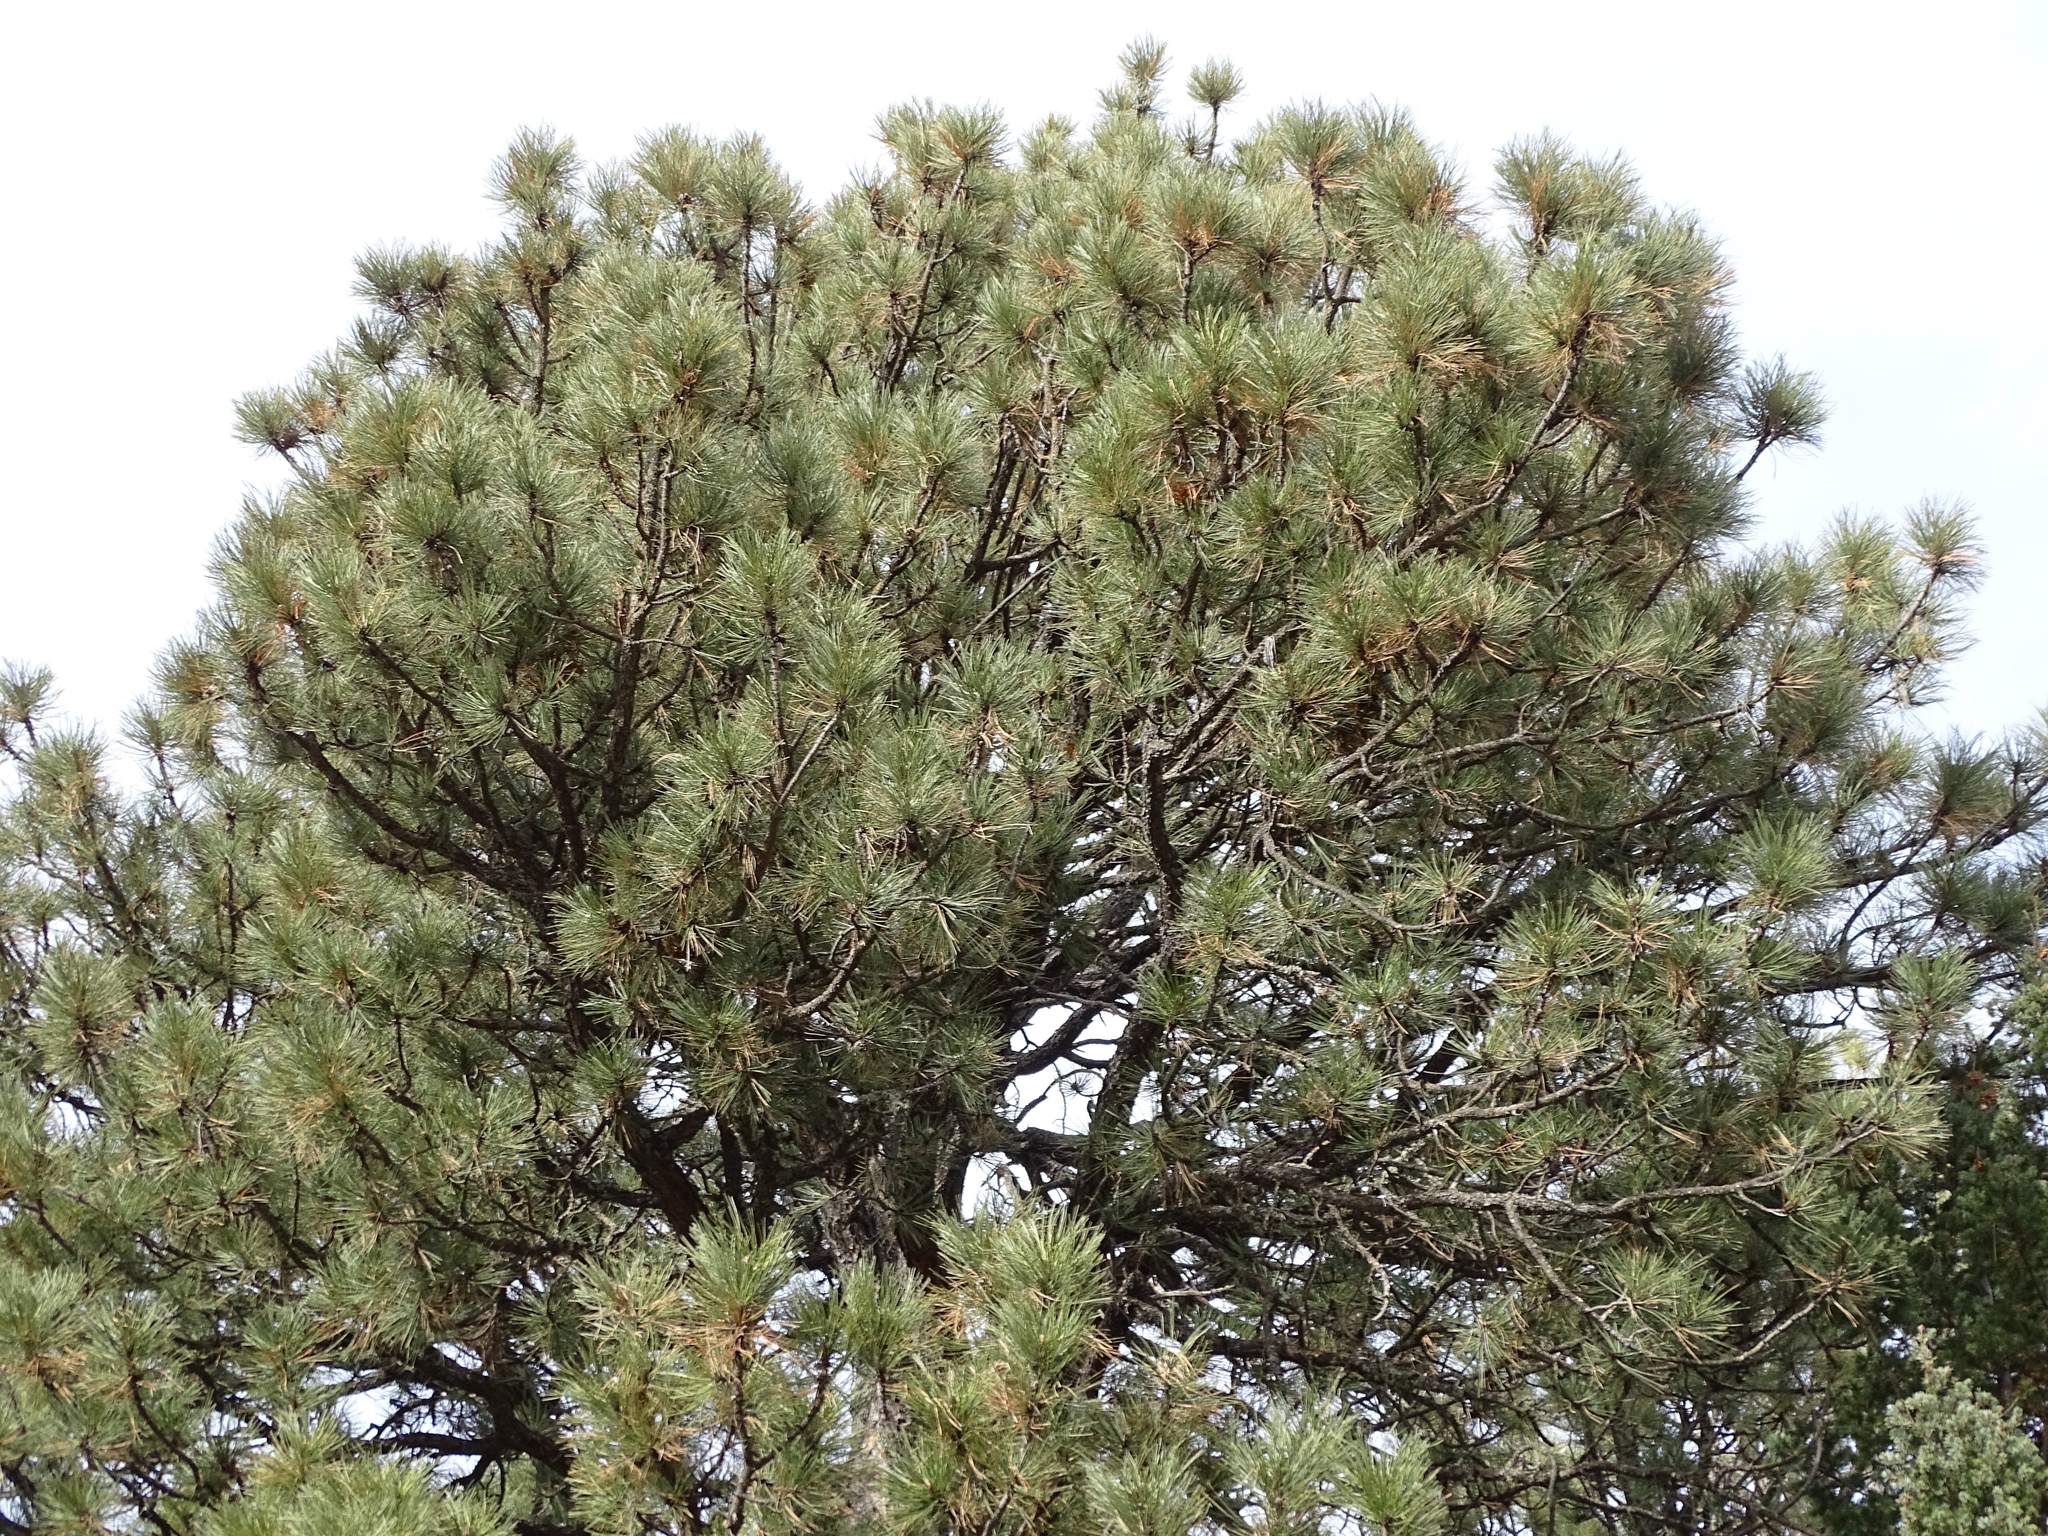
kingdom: Plantae
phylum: Tracheophyta
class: Pinopsida
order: Pinales
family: Pinaceae
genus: Pinus
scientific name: Pinus ponderosa
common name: Western yellow-pine
